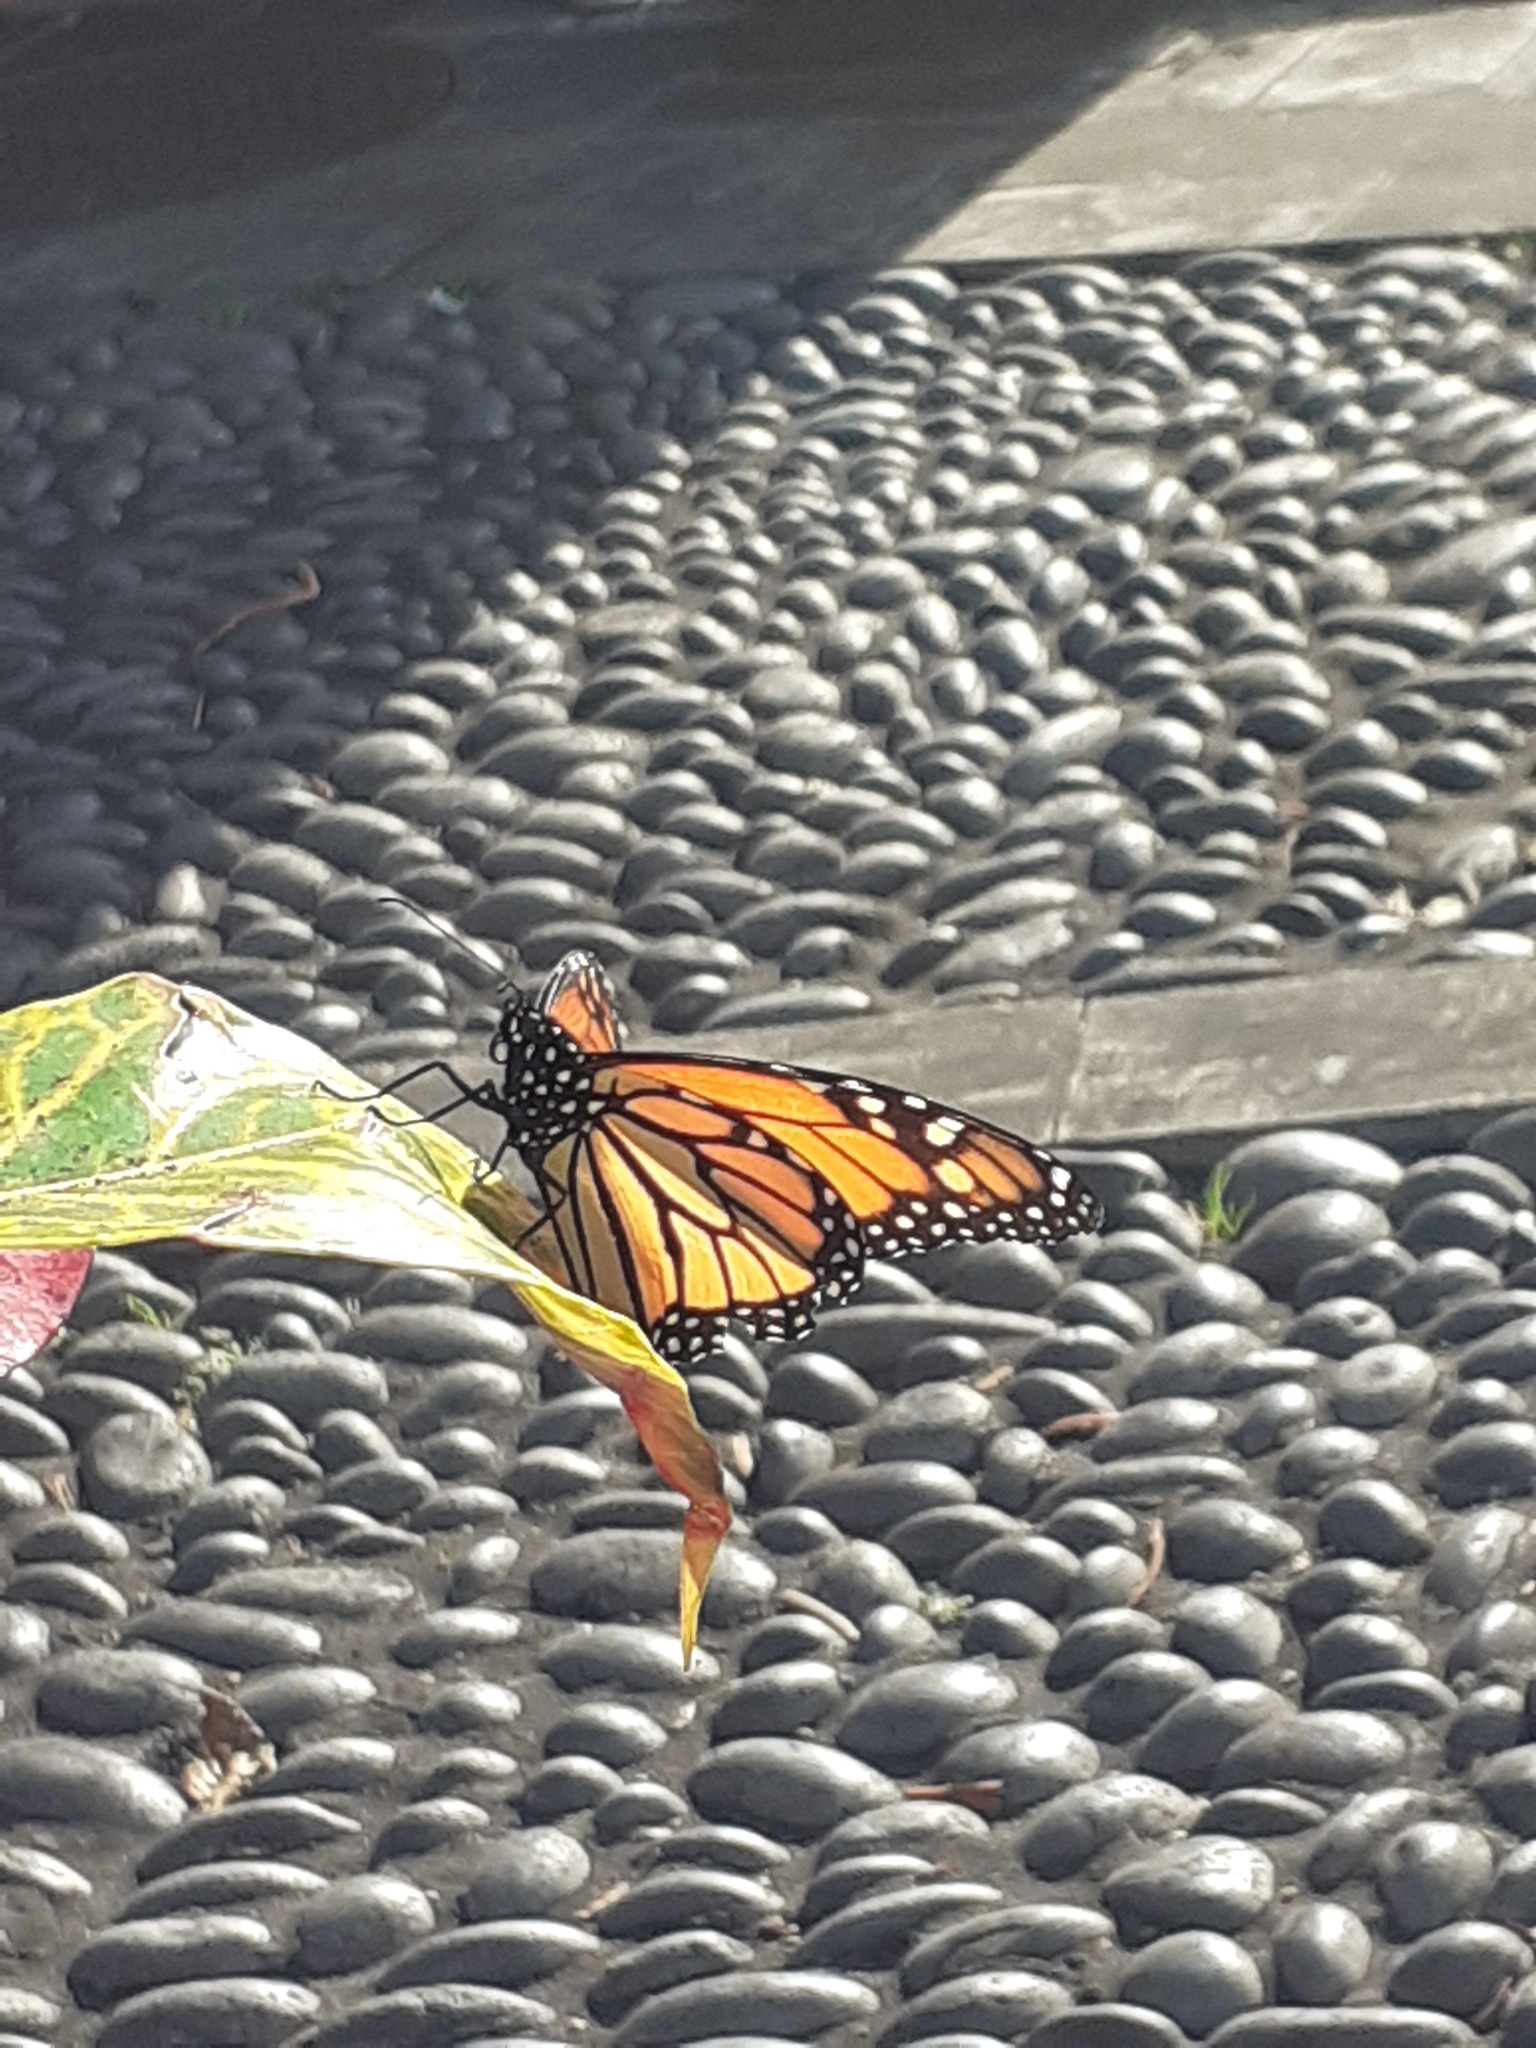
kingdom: Animalia
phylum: Arthropoda
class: Insecta
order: Lepidoptera
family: Nymphalidae
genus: Danaus
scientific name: Danaus plexippus
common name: Monarch
